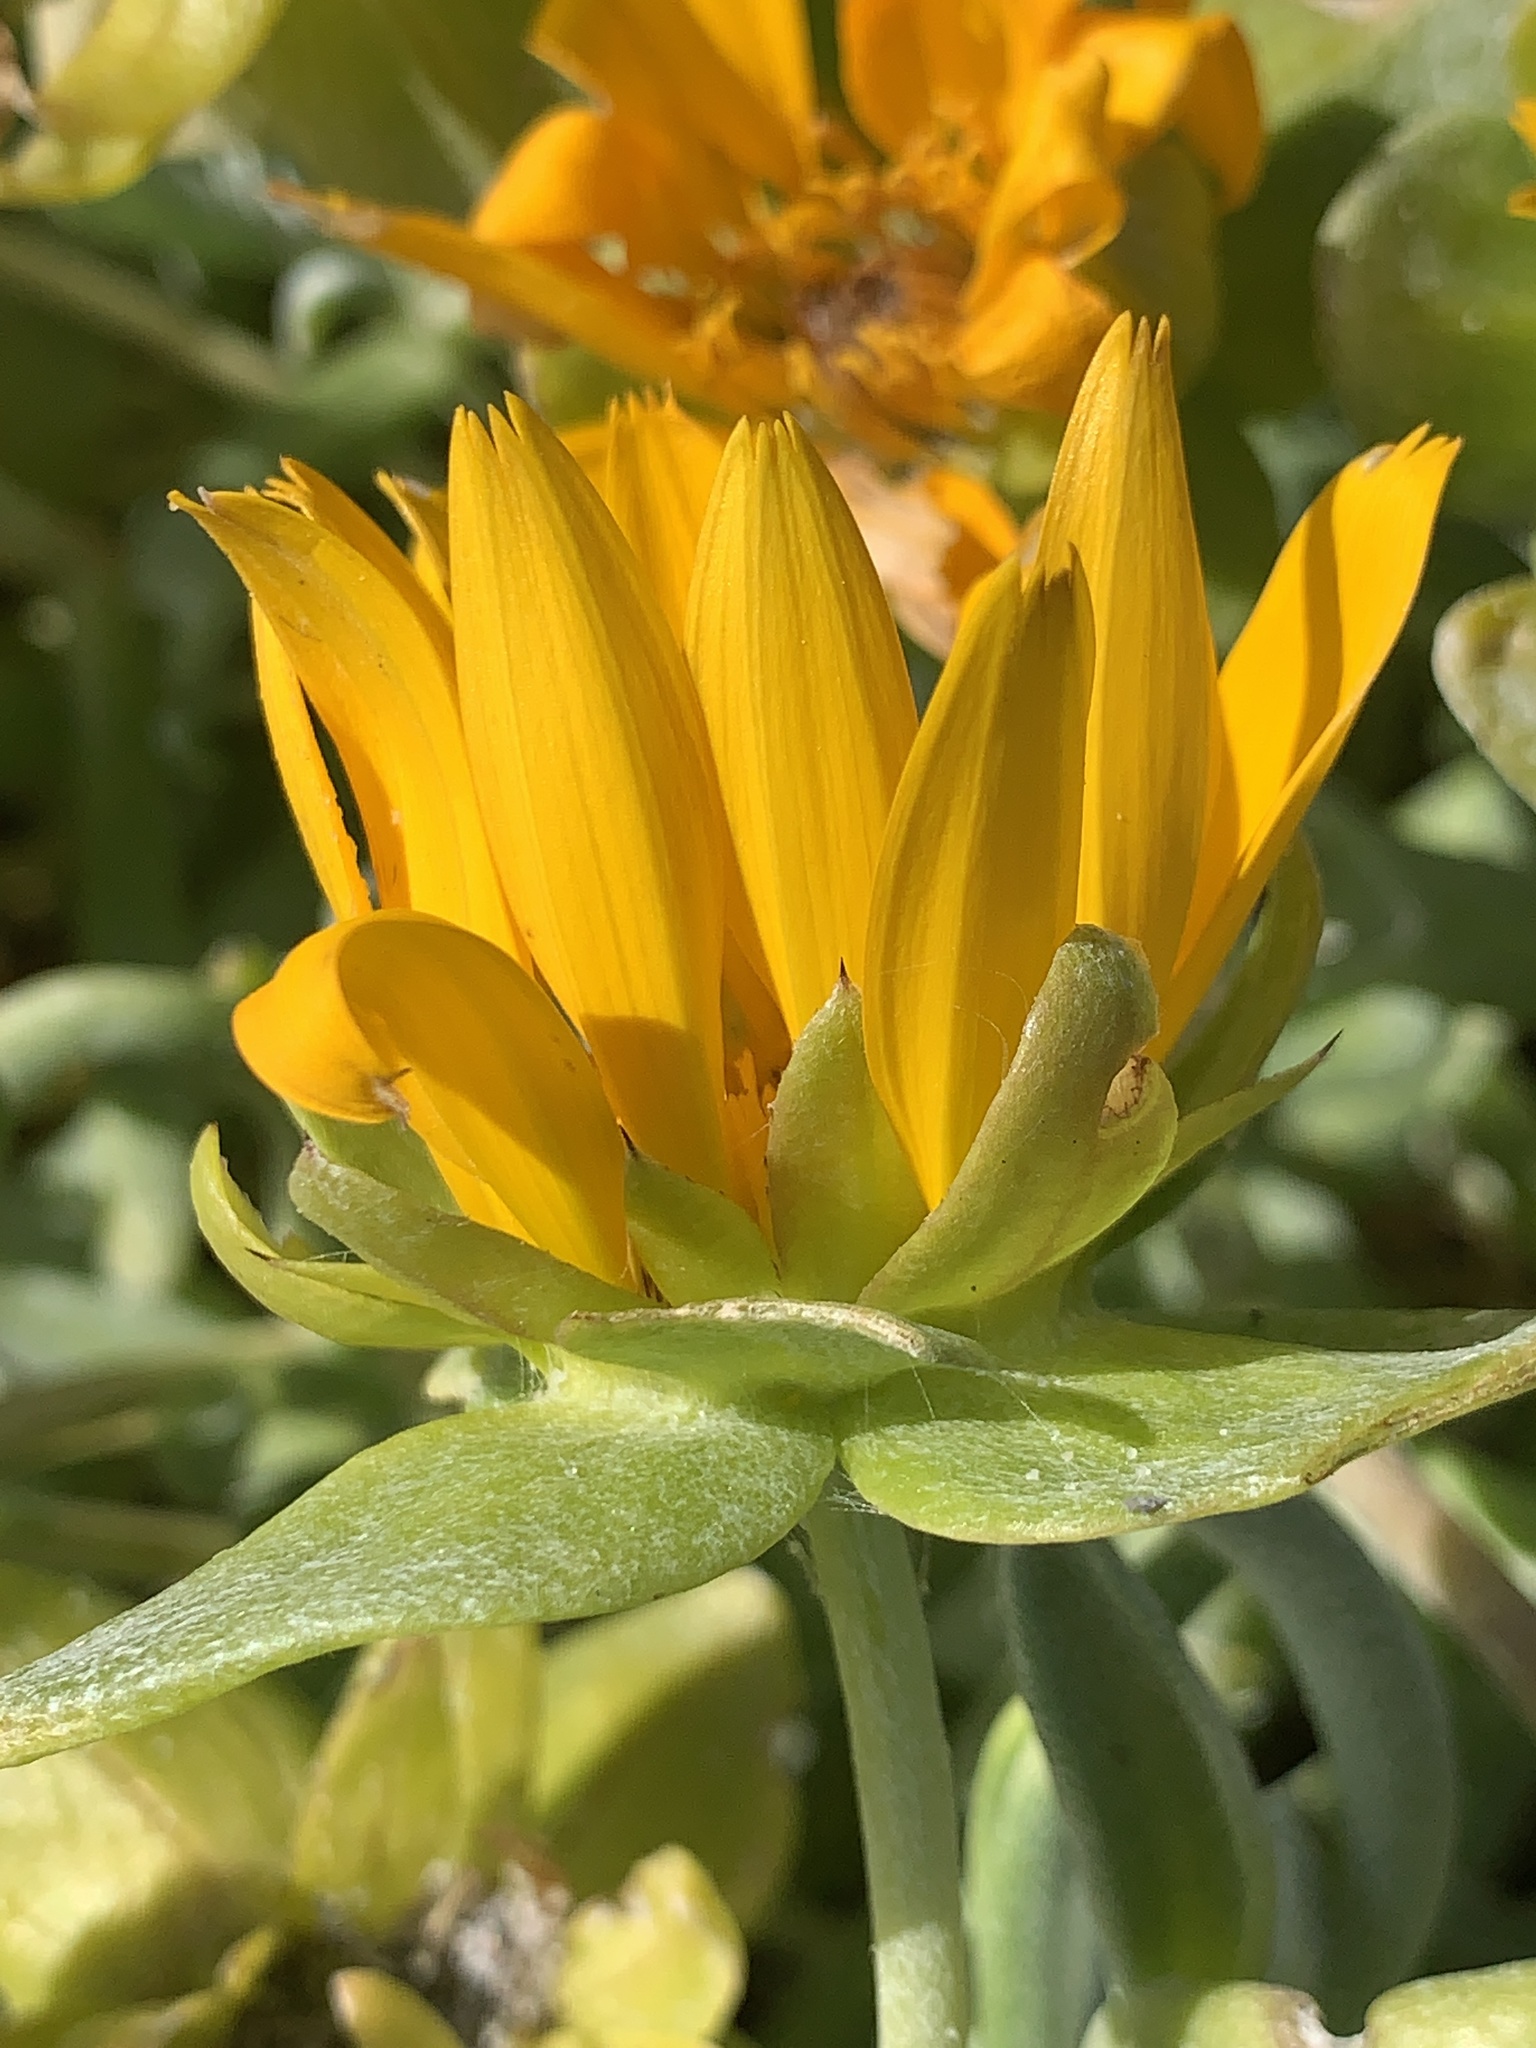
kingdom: Plantae
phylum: Tracheophyta
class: Magnoliopsida
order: Asterales
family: Asteraceae
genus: Didelta
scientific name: Didelta carnosa
